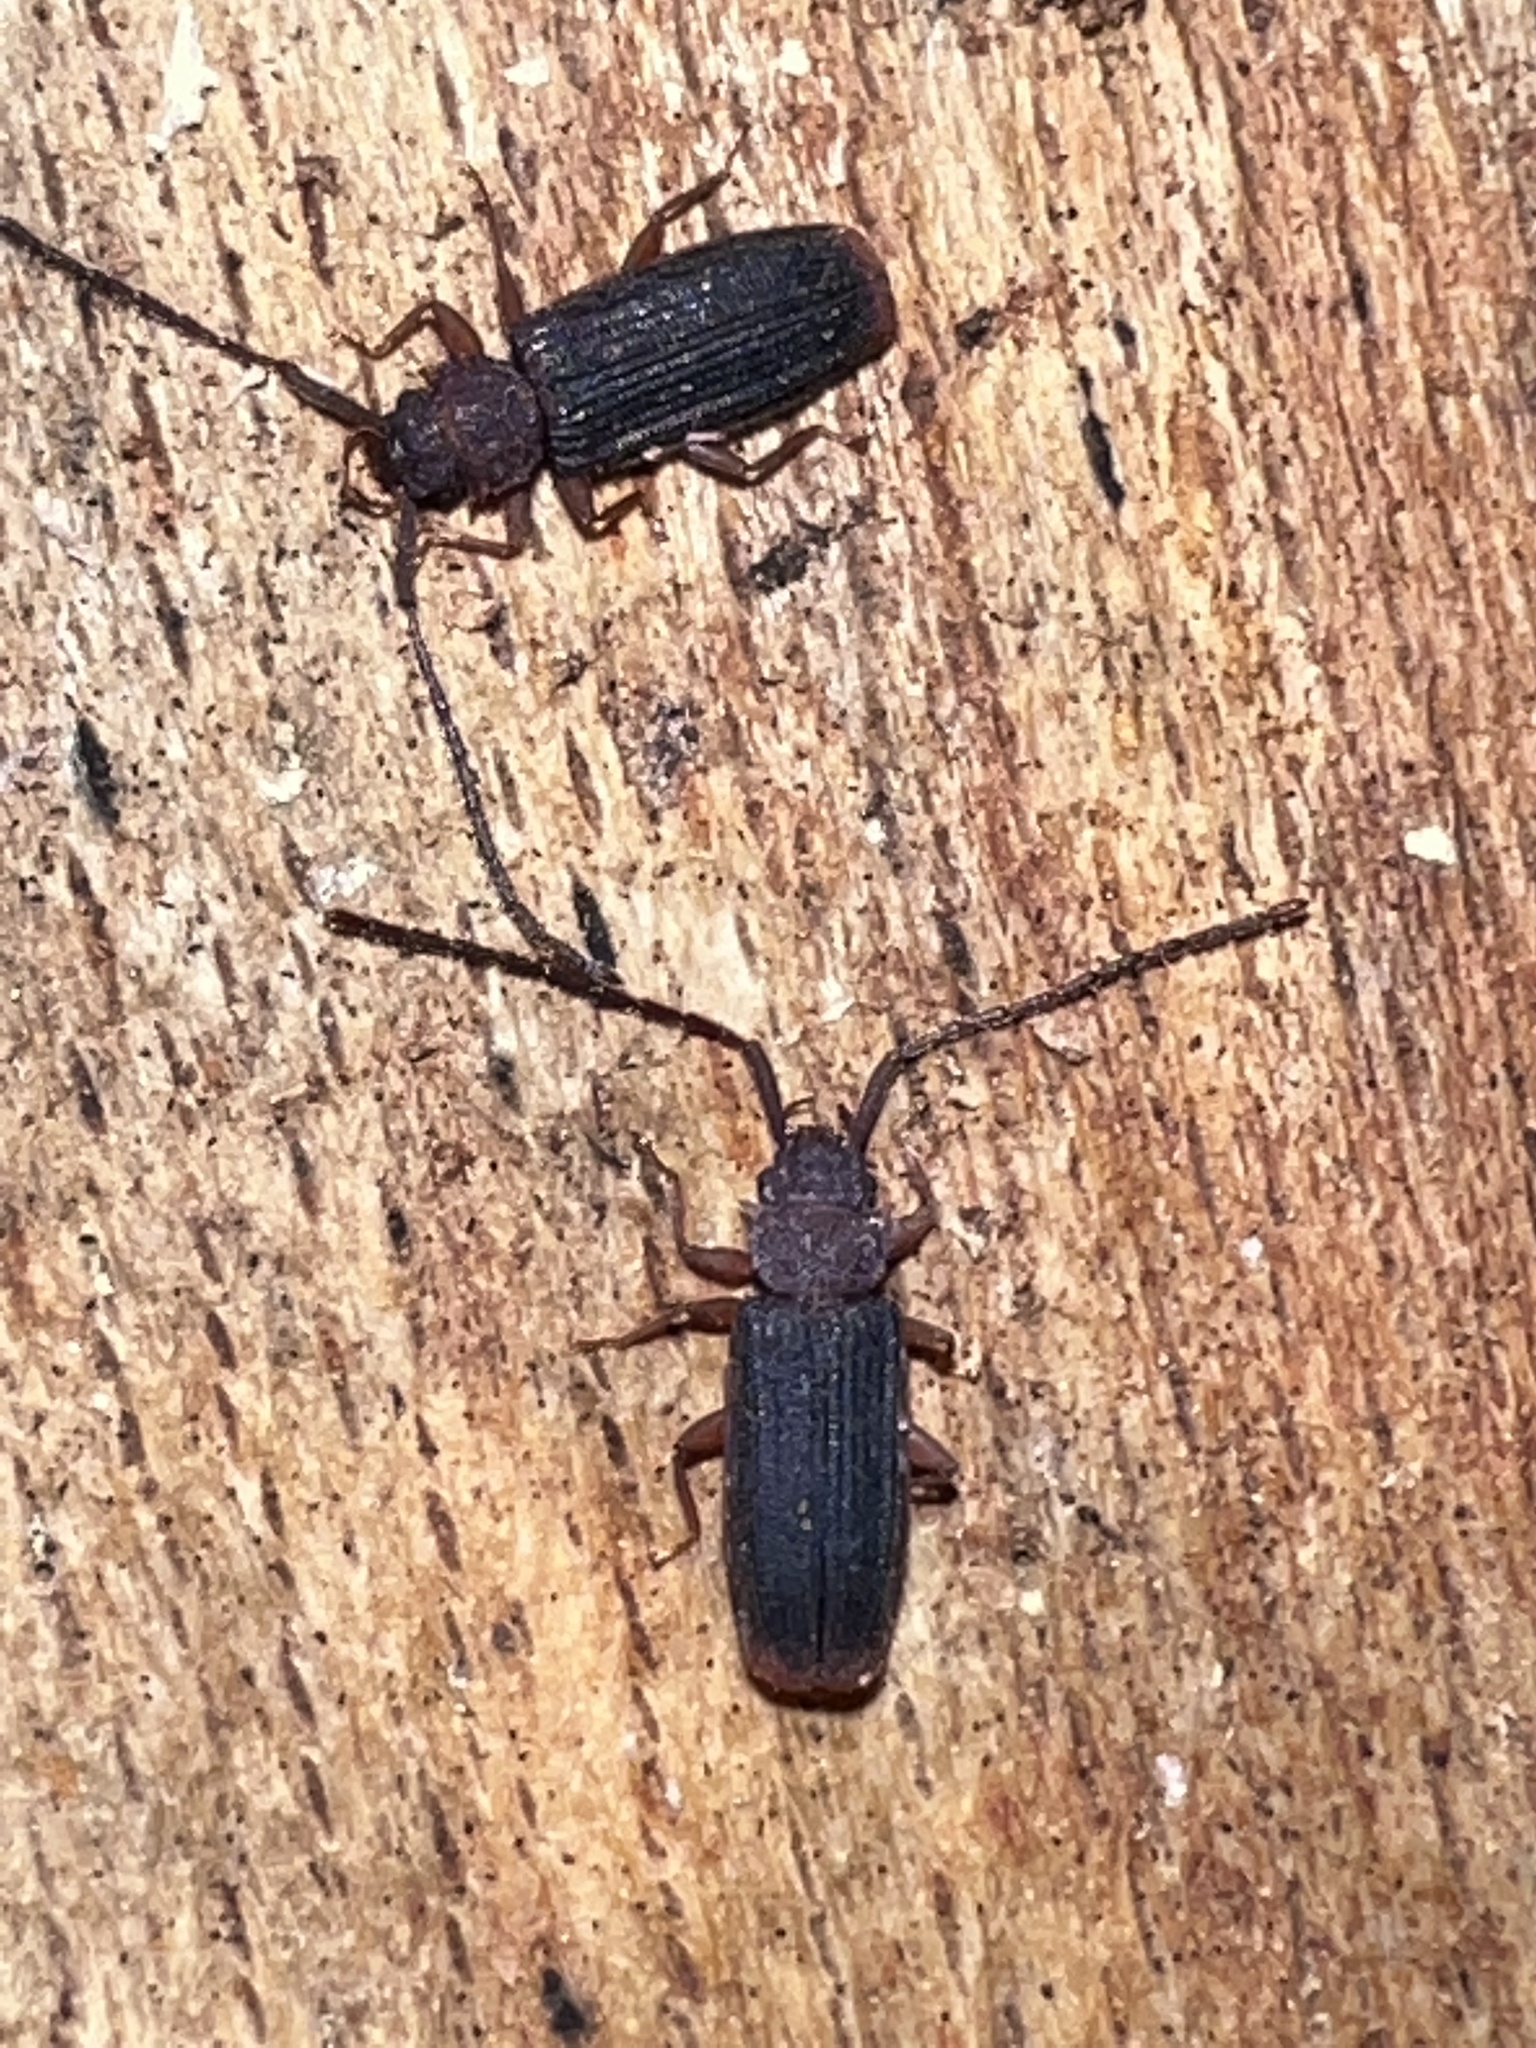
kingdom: Animalia
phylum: Arthropoda
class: Insecta
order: Coleoptera
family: Silvanidae
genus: Uleiota
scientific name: Uleiota dubia
